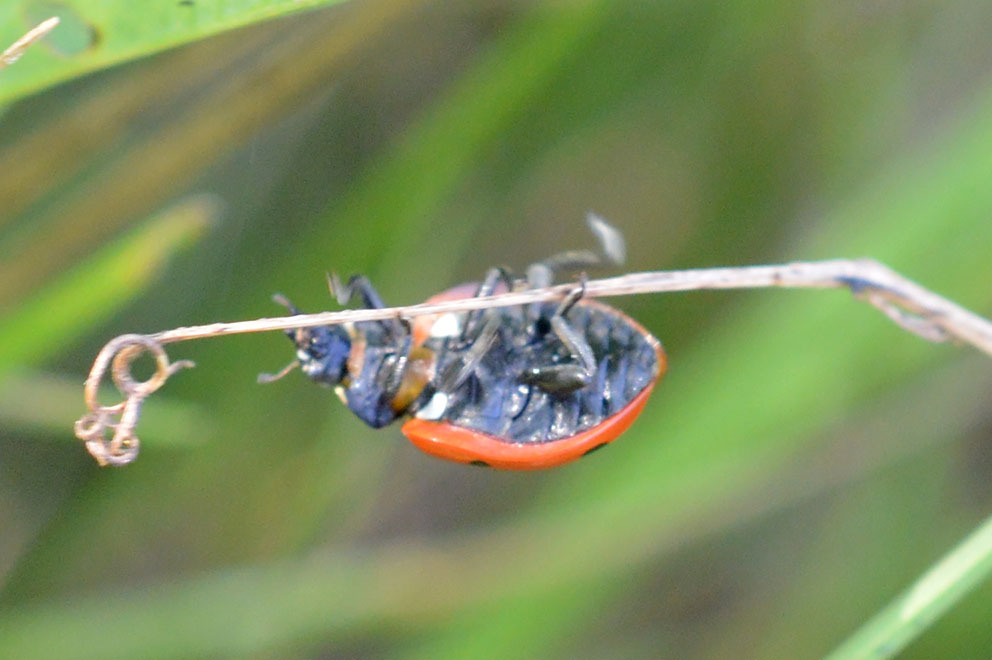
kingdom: Animalia
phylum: Arthropoda
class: Insecta
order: Coleoptera
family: Coccinellidae
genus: Coccinella
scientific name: Coccinella septempunctata
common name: Sevenspotted lady beetle
